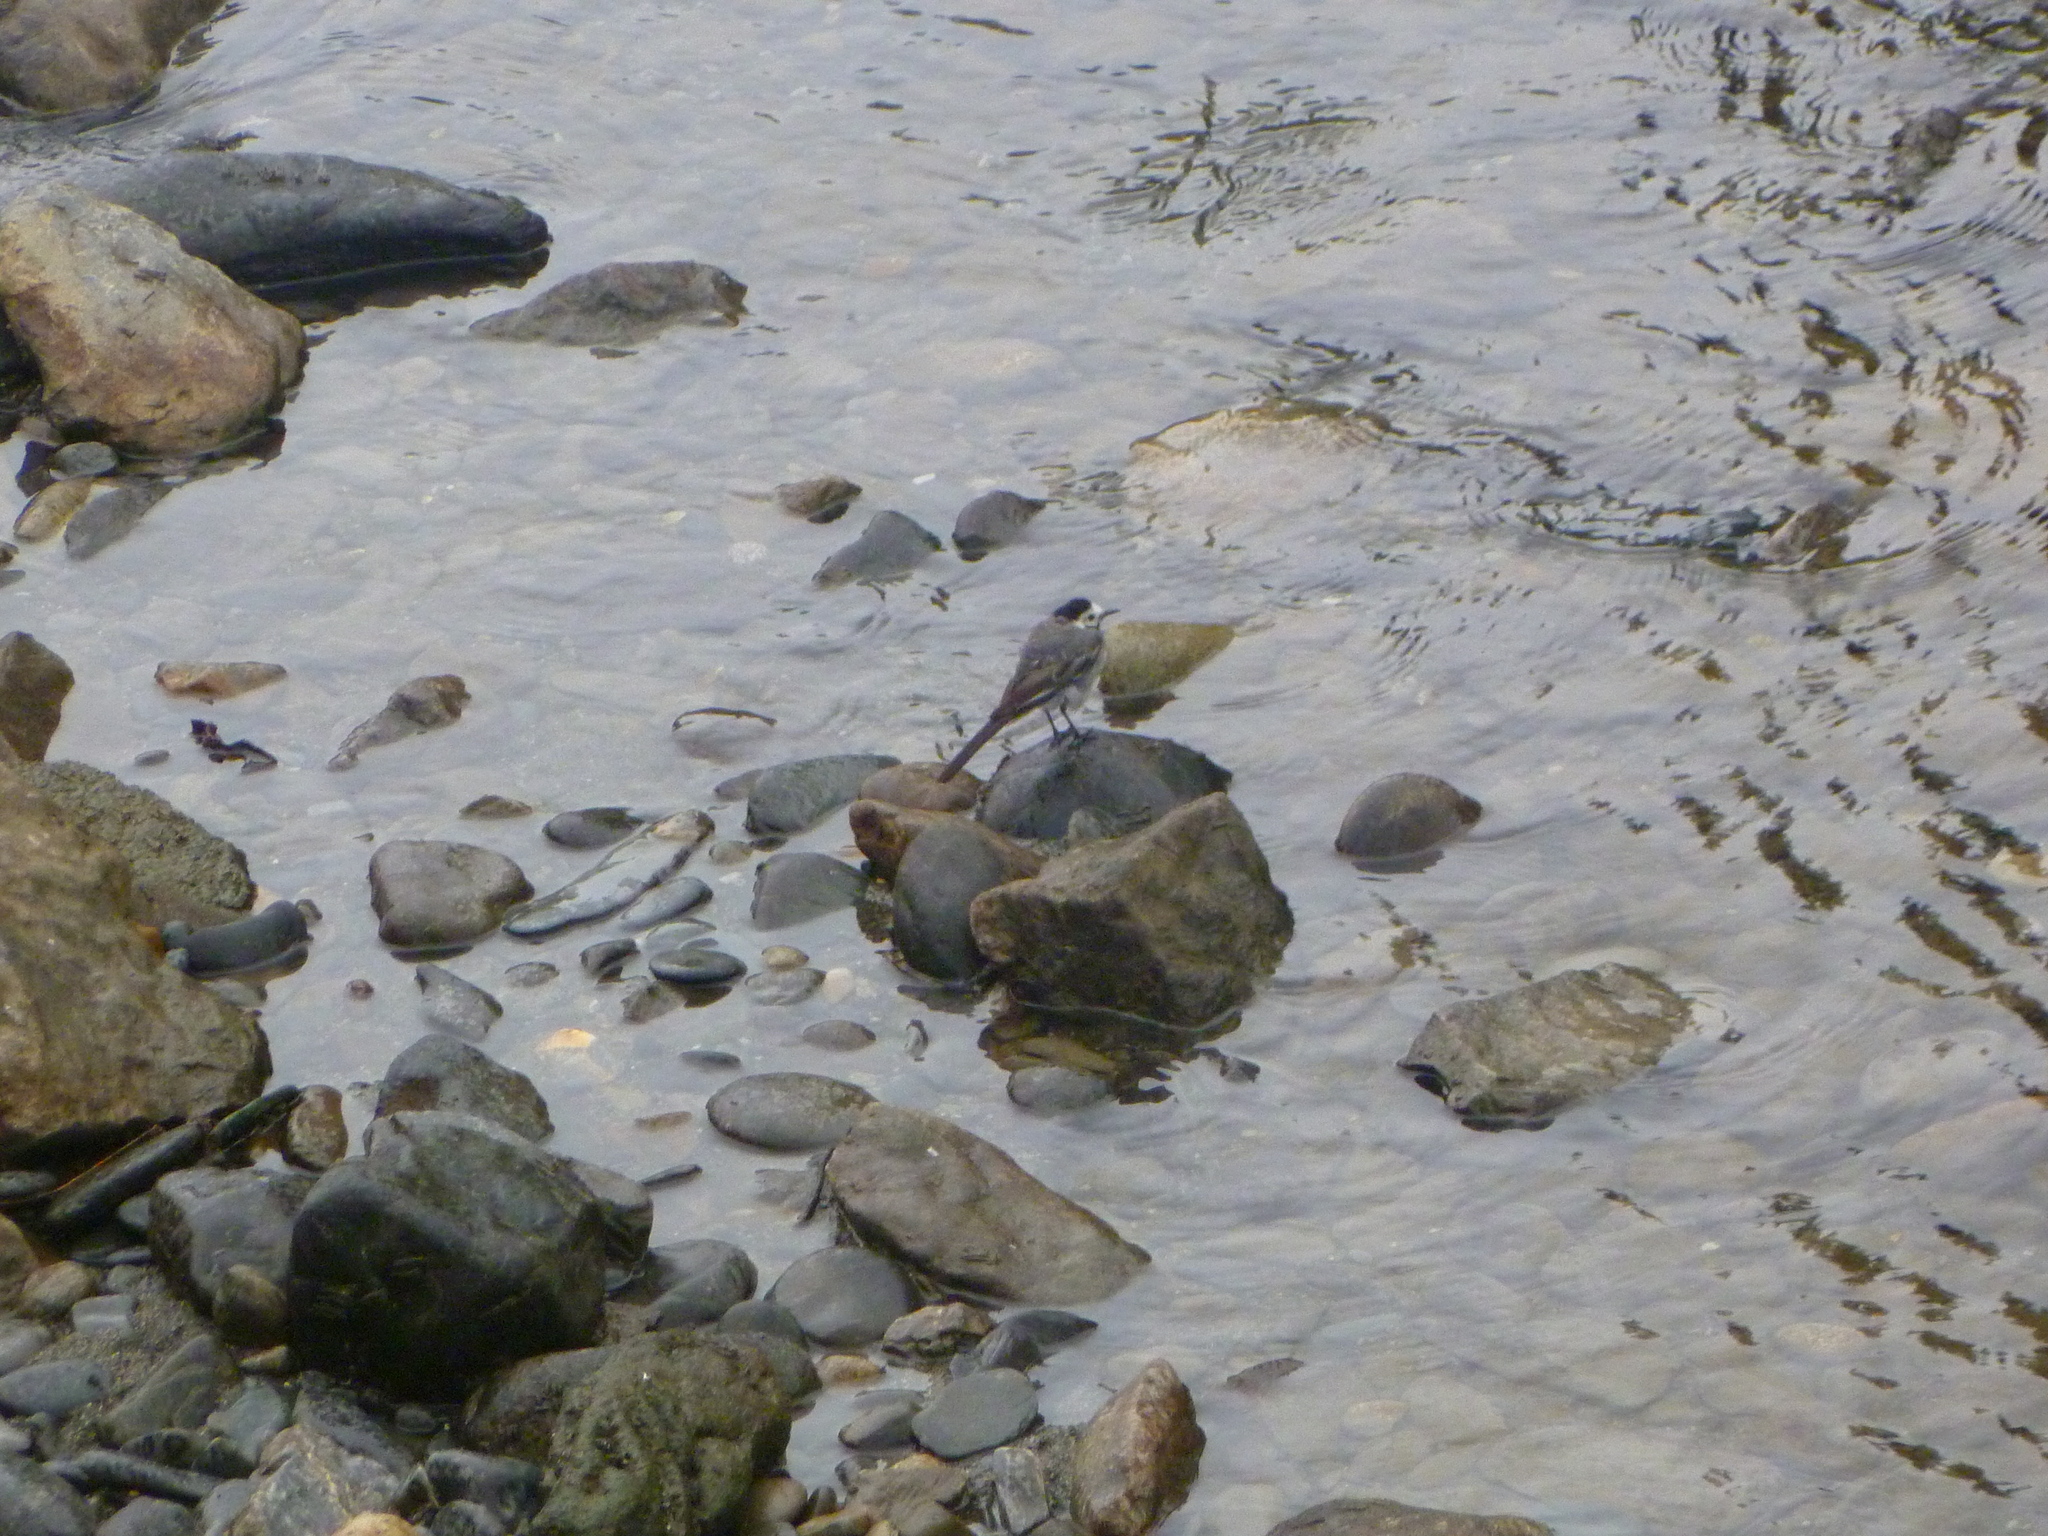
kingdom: Animalia
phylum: Chordata
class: Aves
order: Passeriformes
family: Motacillidae
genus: Motacilla
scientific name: Motacilla alba
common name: White wagtail
